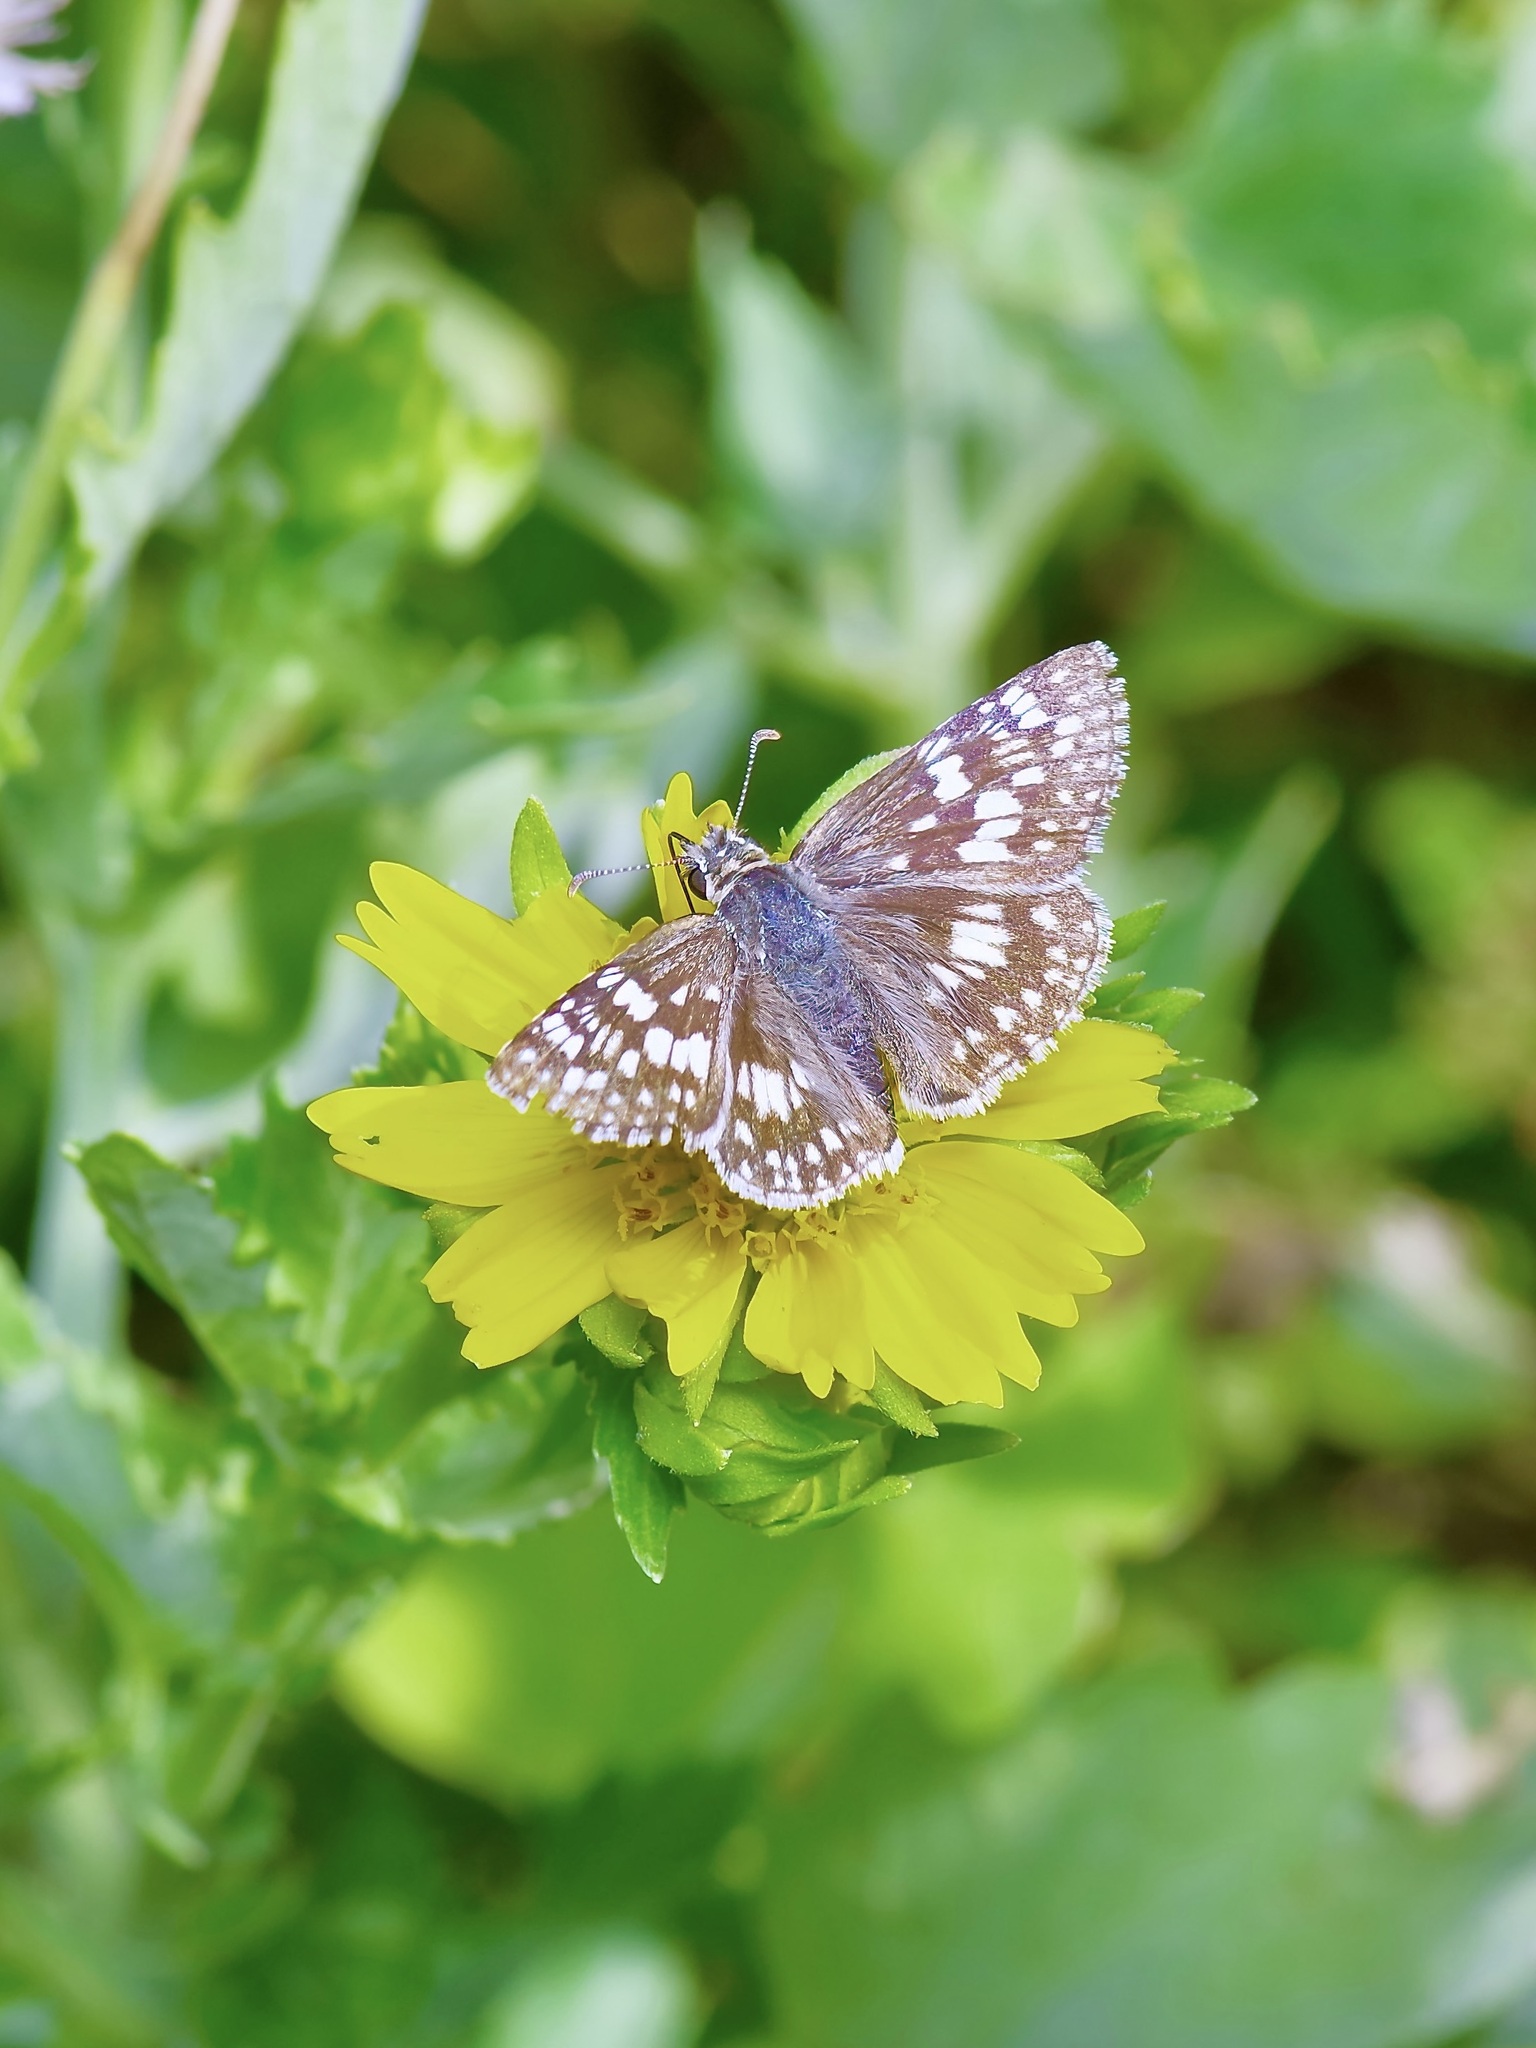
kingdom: Animalia
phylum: Arthropoda
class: Insecta
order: Lepidoptera
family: Hesperiidae
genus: Burnsius
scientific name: Burnsius
